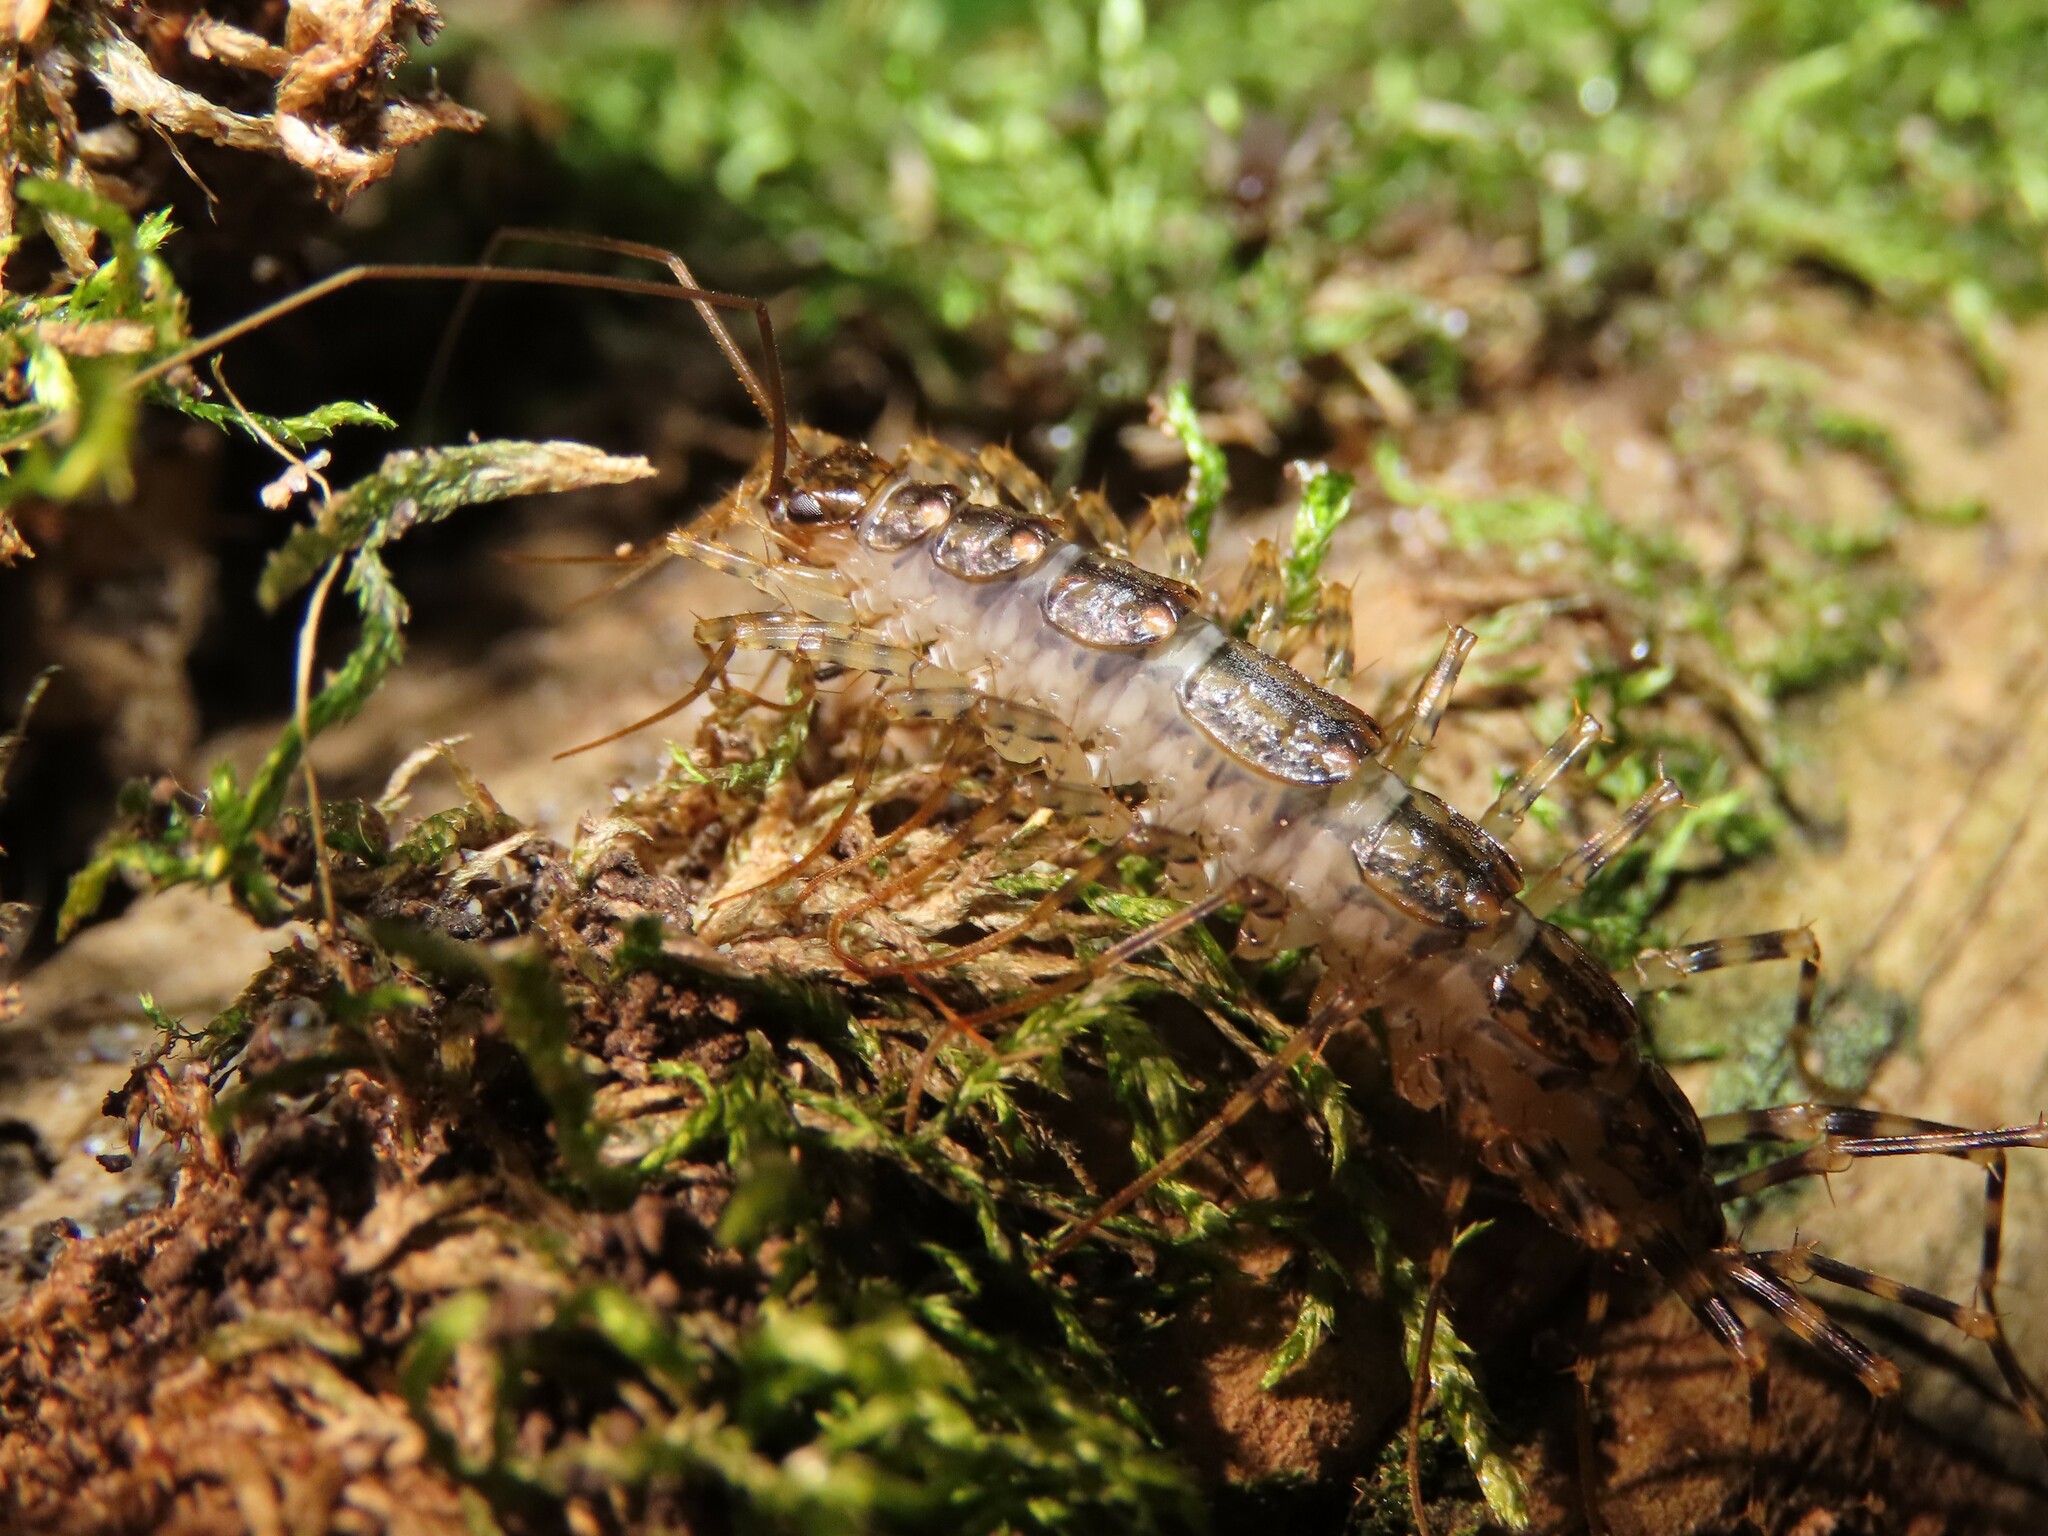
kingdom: Animalia
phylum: Arthropoda
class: Chilopoda
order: Scutigeromorpha
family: Scutigeridae
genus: Thereuonema
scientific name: Thereuonema tuberculata
